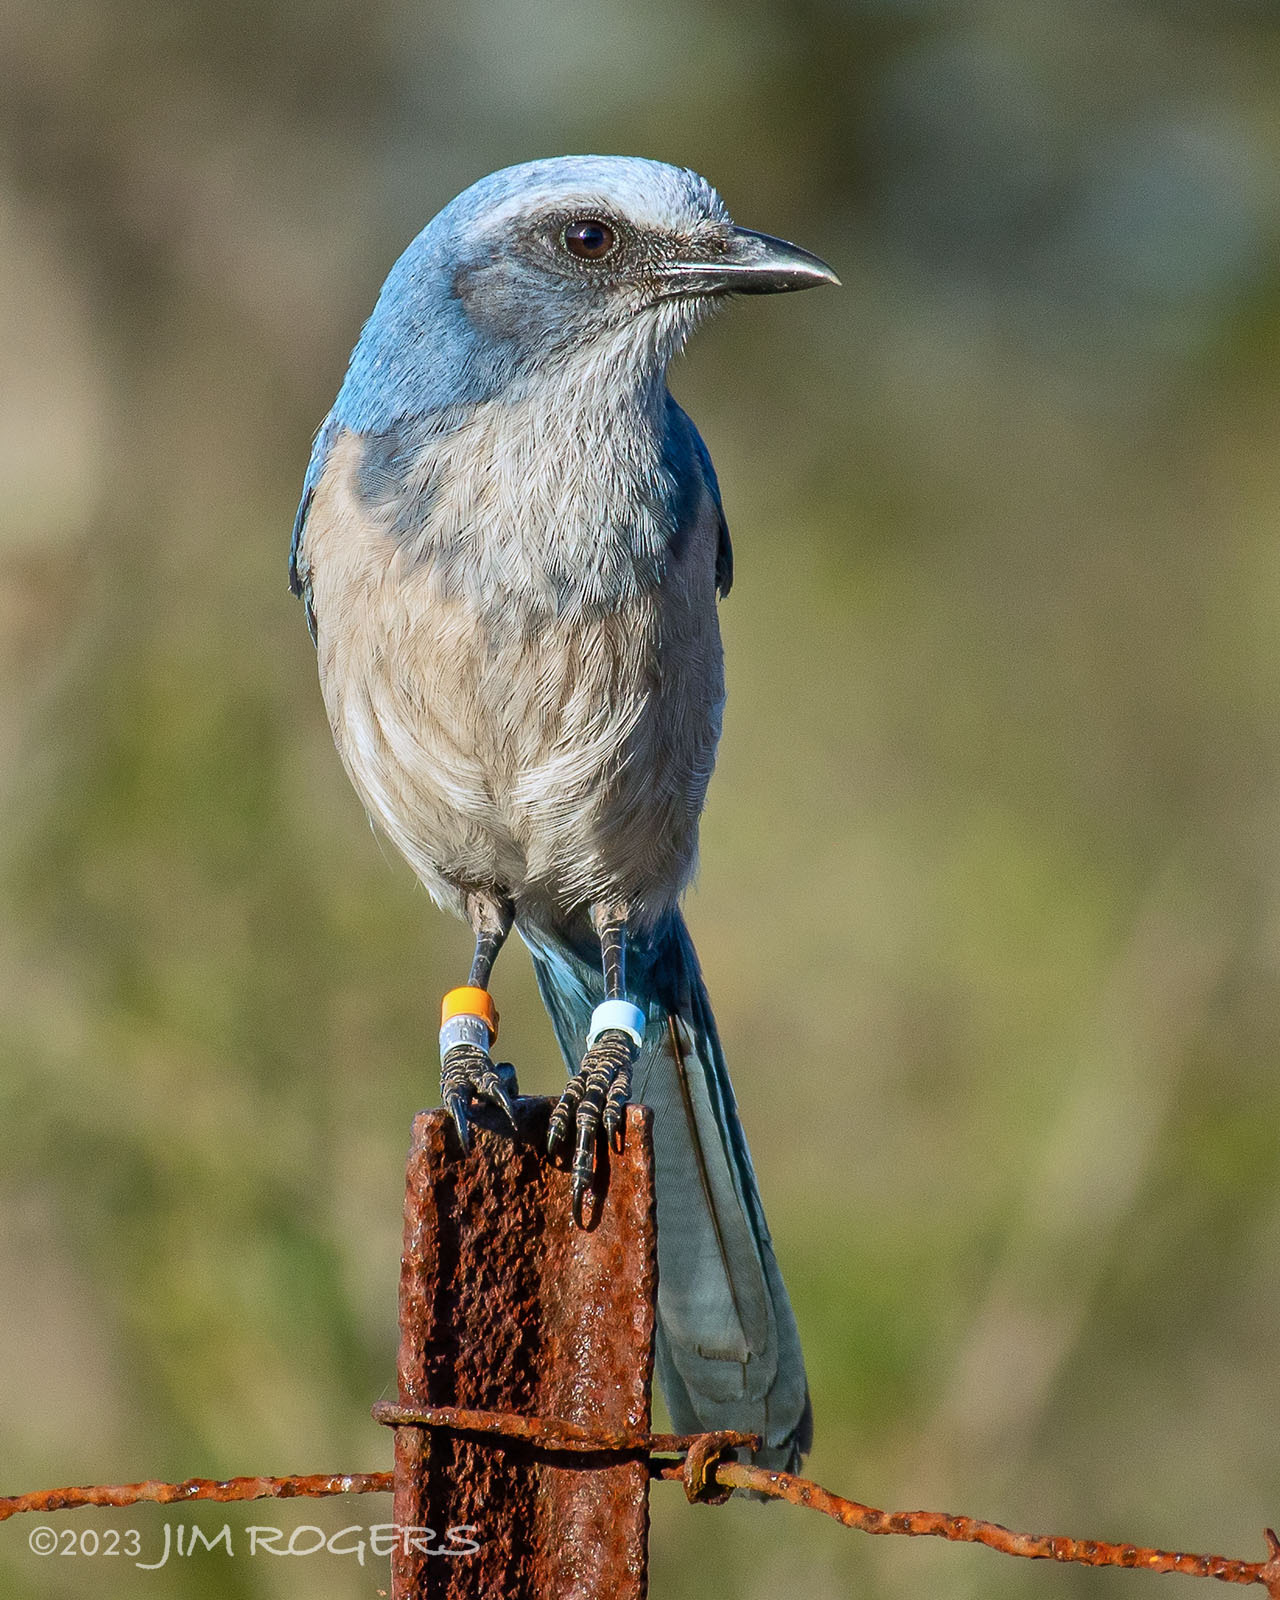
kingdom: Animalia
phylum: Chordata
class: Aves
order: Passeriformes
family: Corvidae
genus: Aphelocoma
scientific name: Aphelocoma coerulescens
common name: Florida scrub jay
